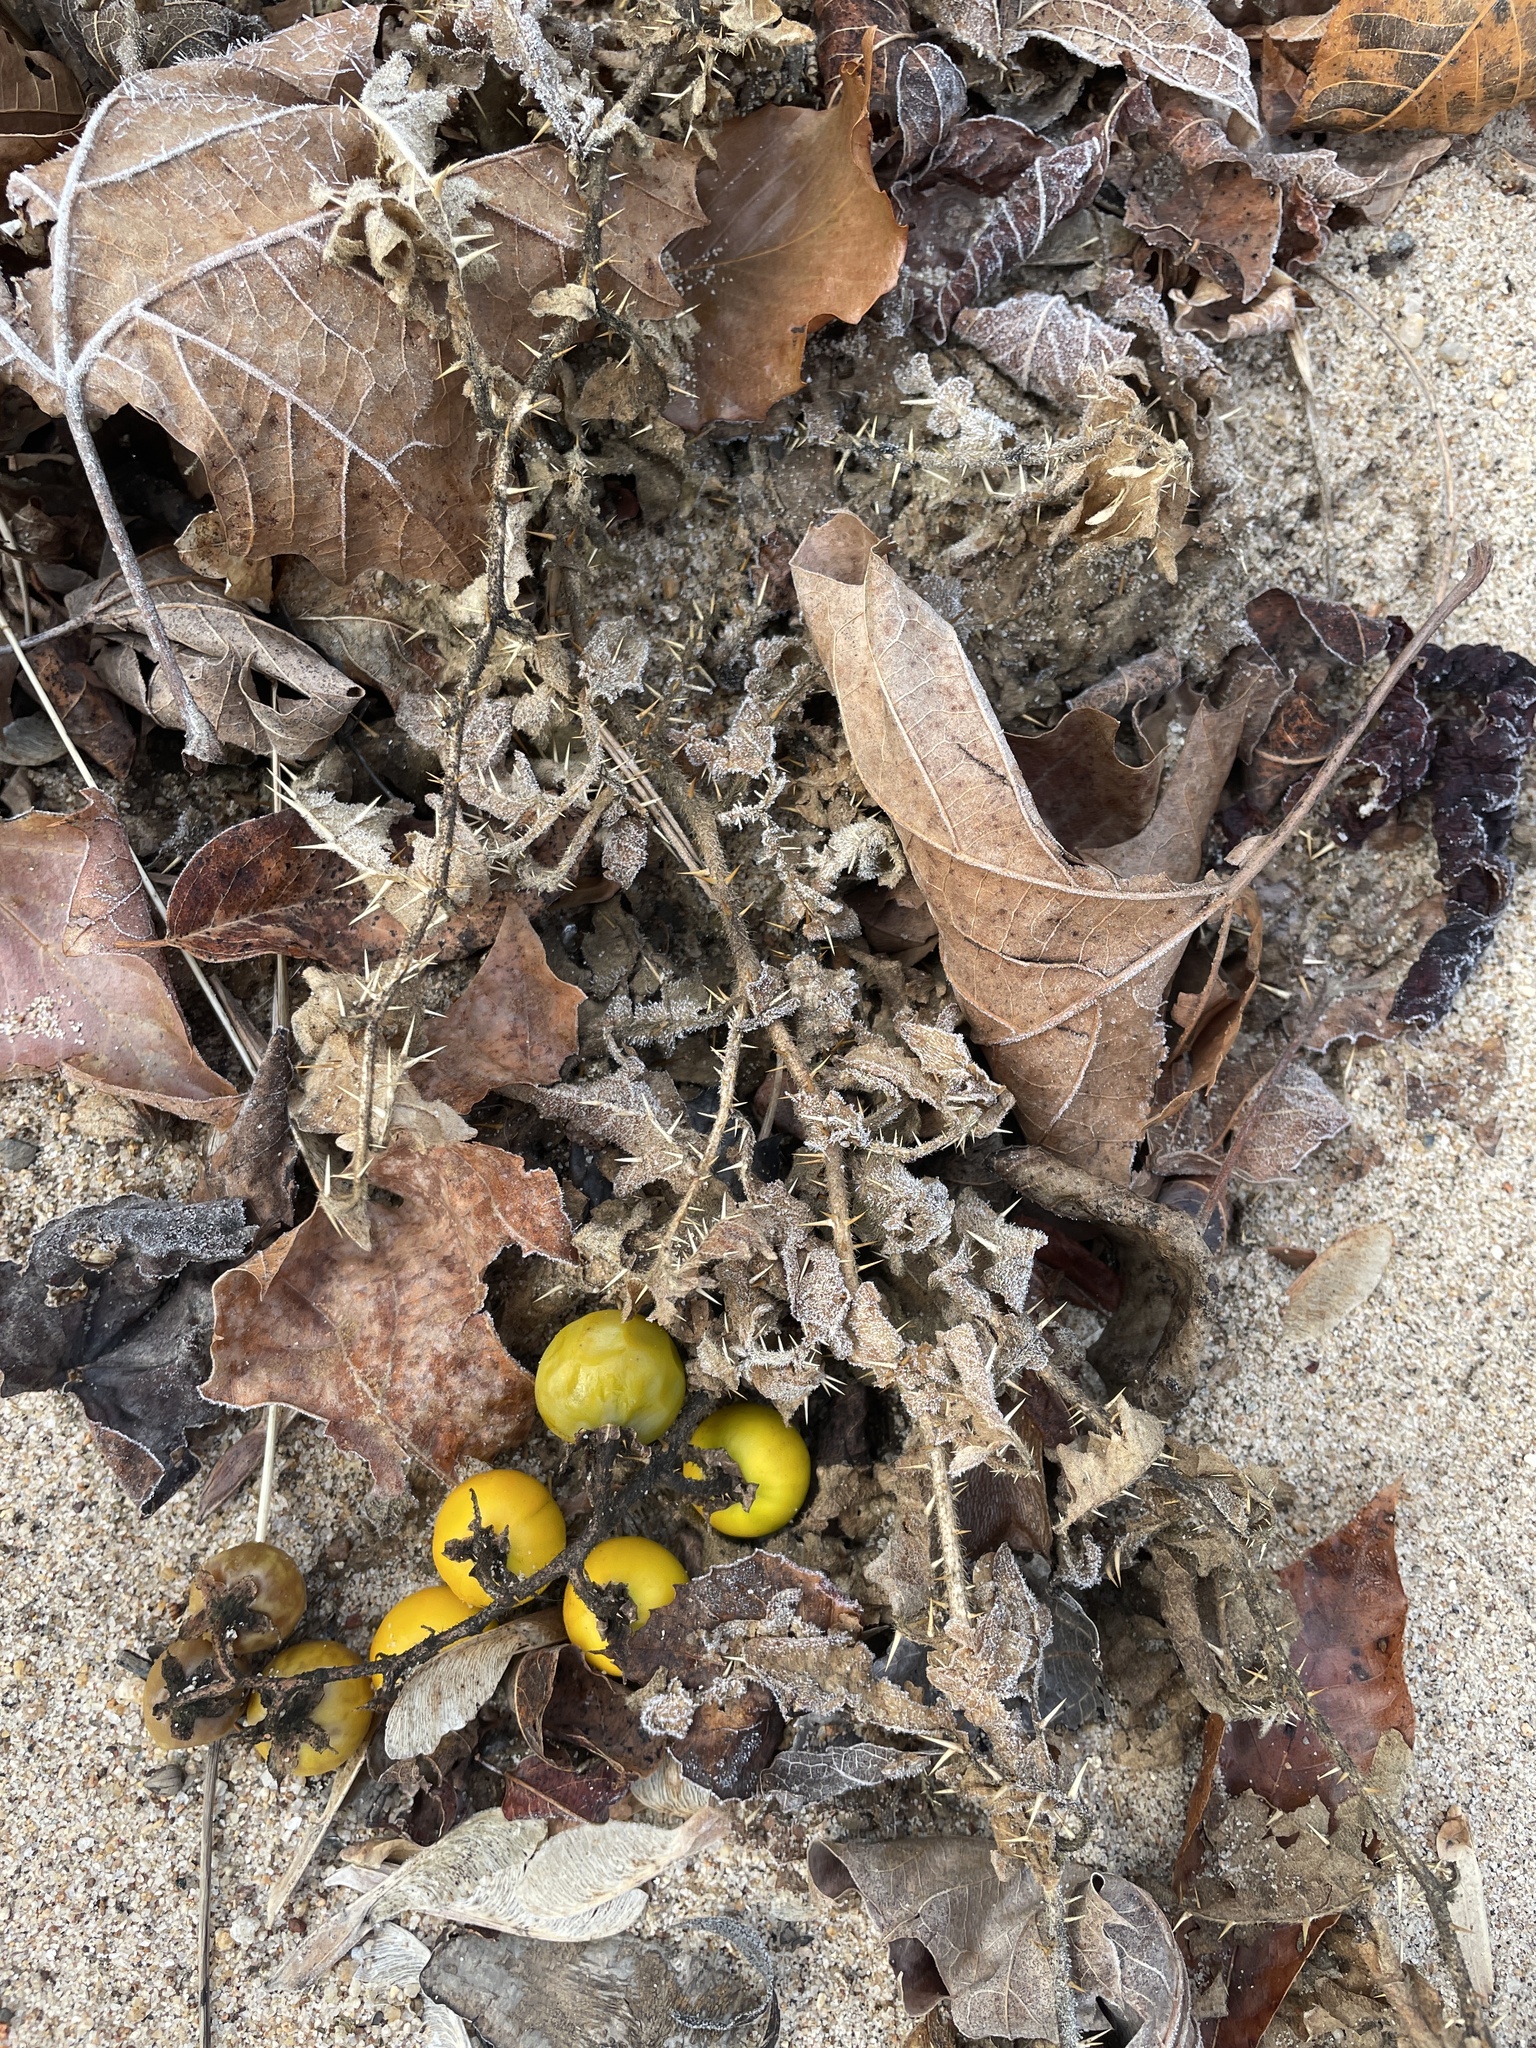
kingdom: Plantae
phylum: Tracheophyta
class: Magnoliopsida
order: Solanales
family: Solanaceae
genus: Solanum
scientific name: Solanum carolinense
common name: Horse-nettle
